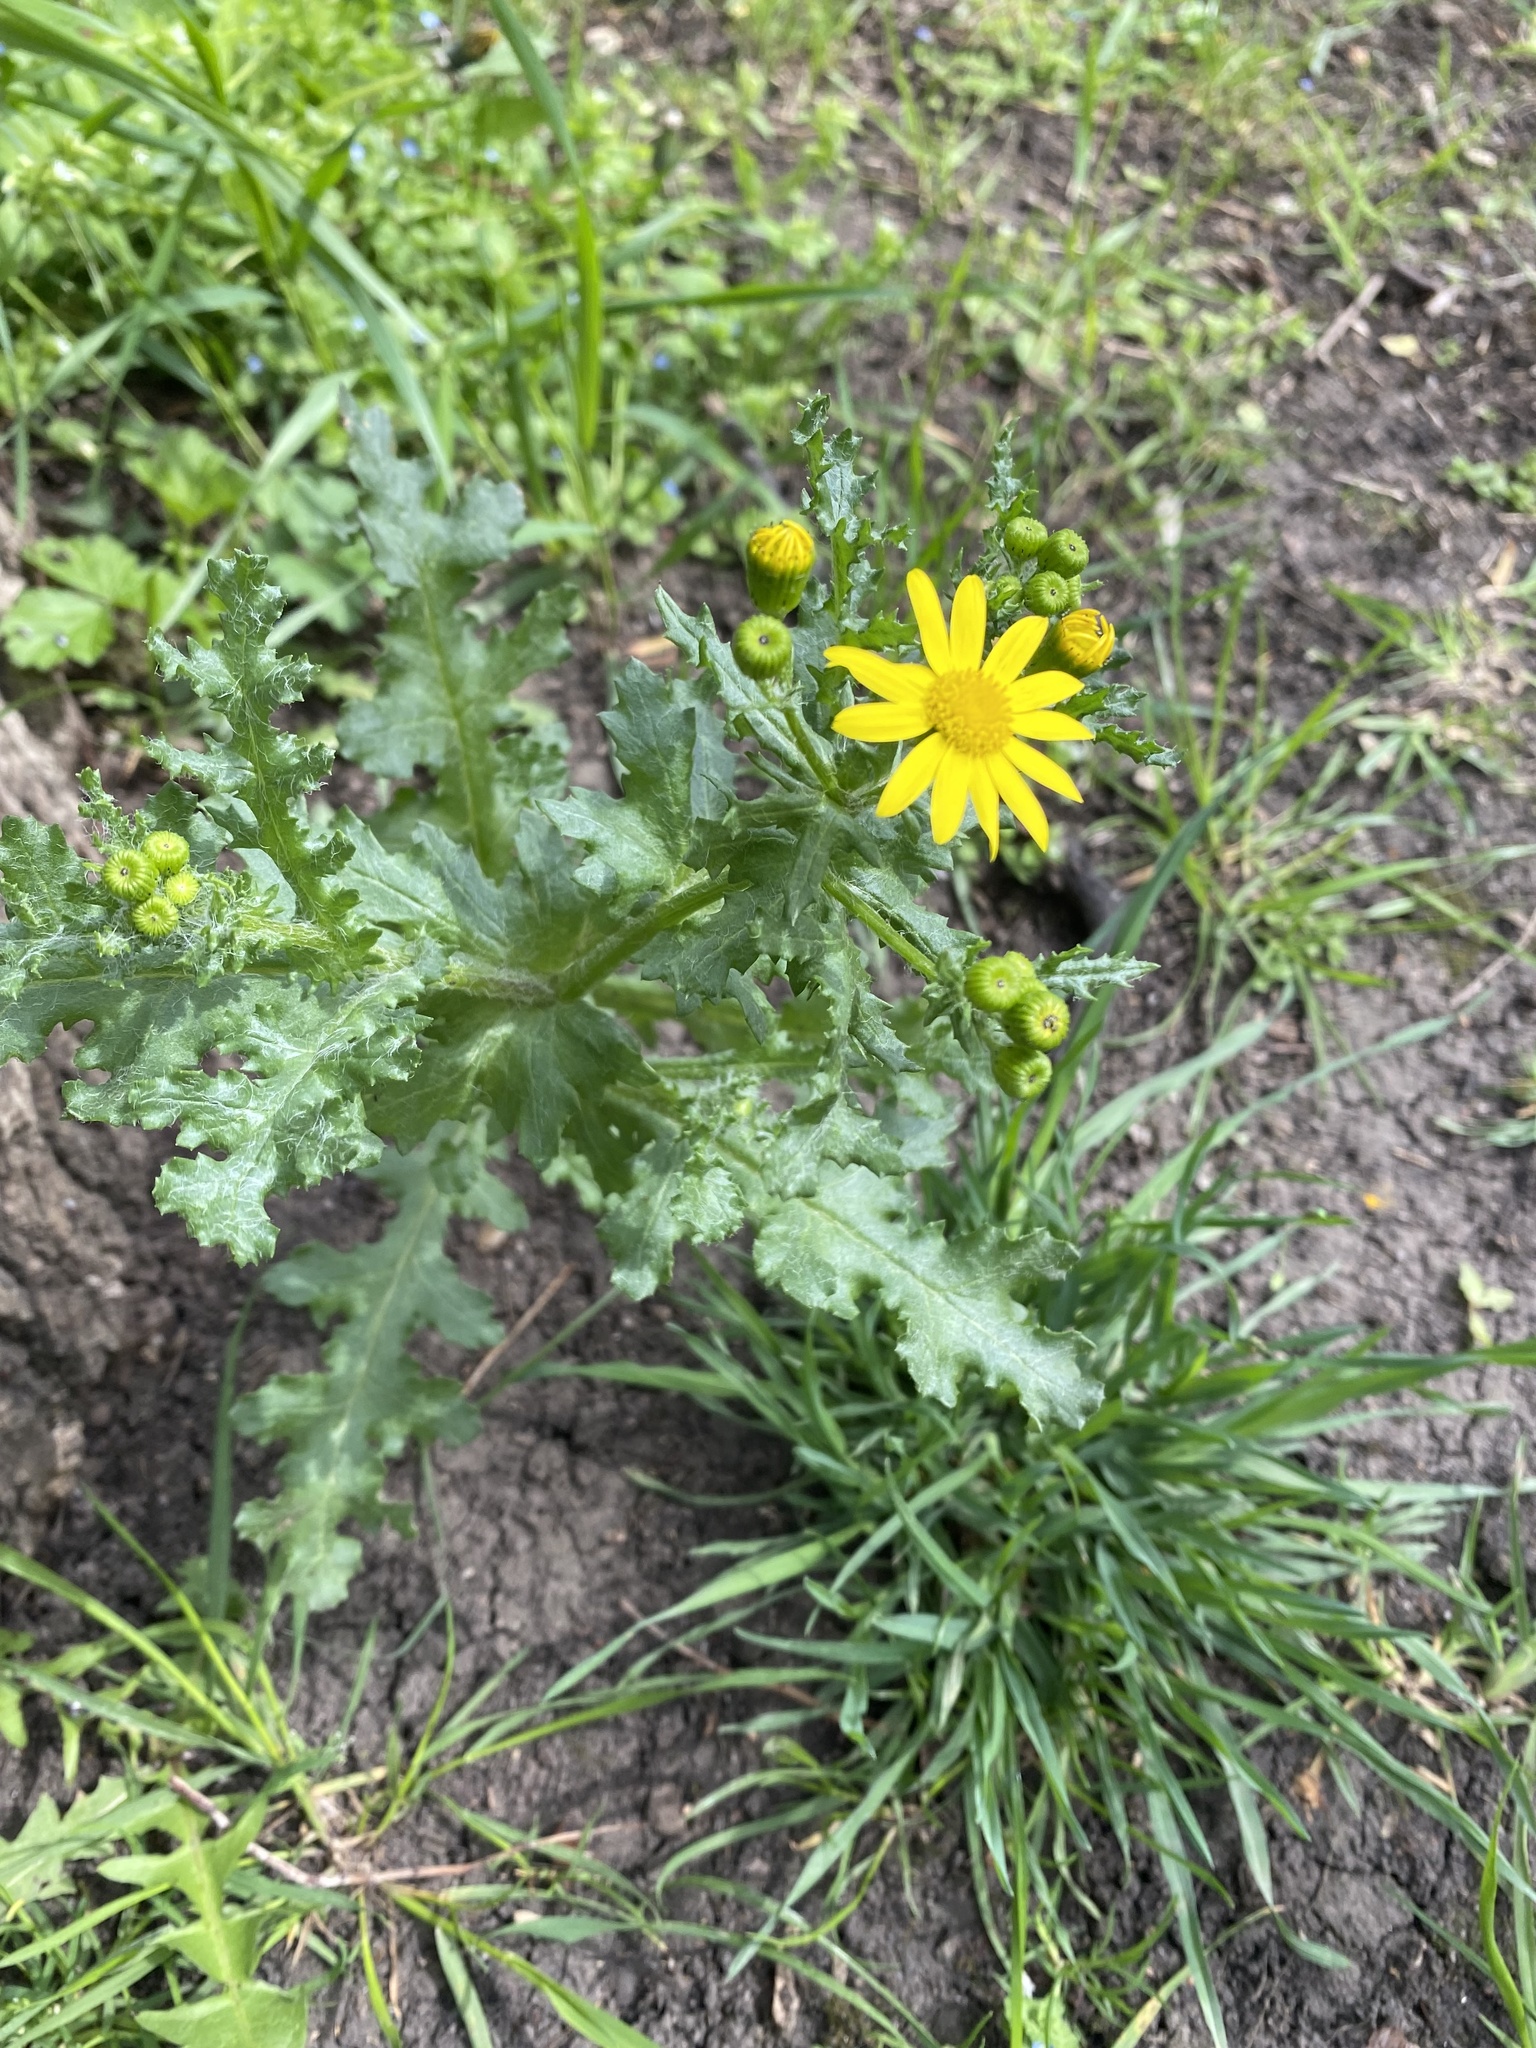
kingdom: Plantae
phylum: Tracheophyta
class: Magnoliopsida
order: Asterales
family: Asteraceae
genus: Senecio
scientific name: Senecio vernalis
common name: Eastern groundsel
